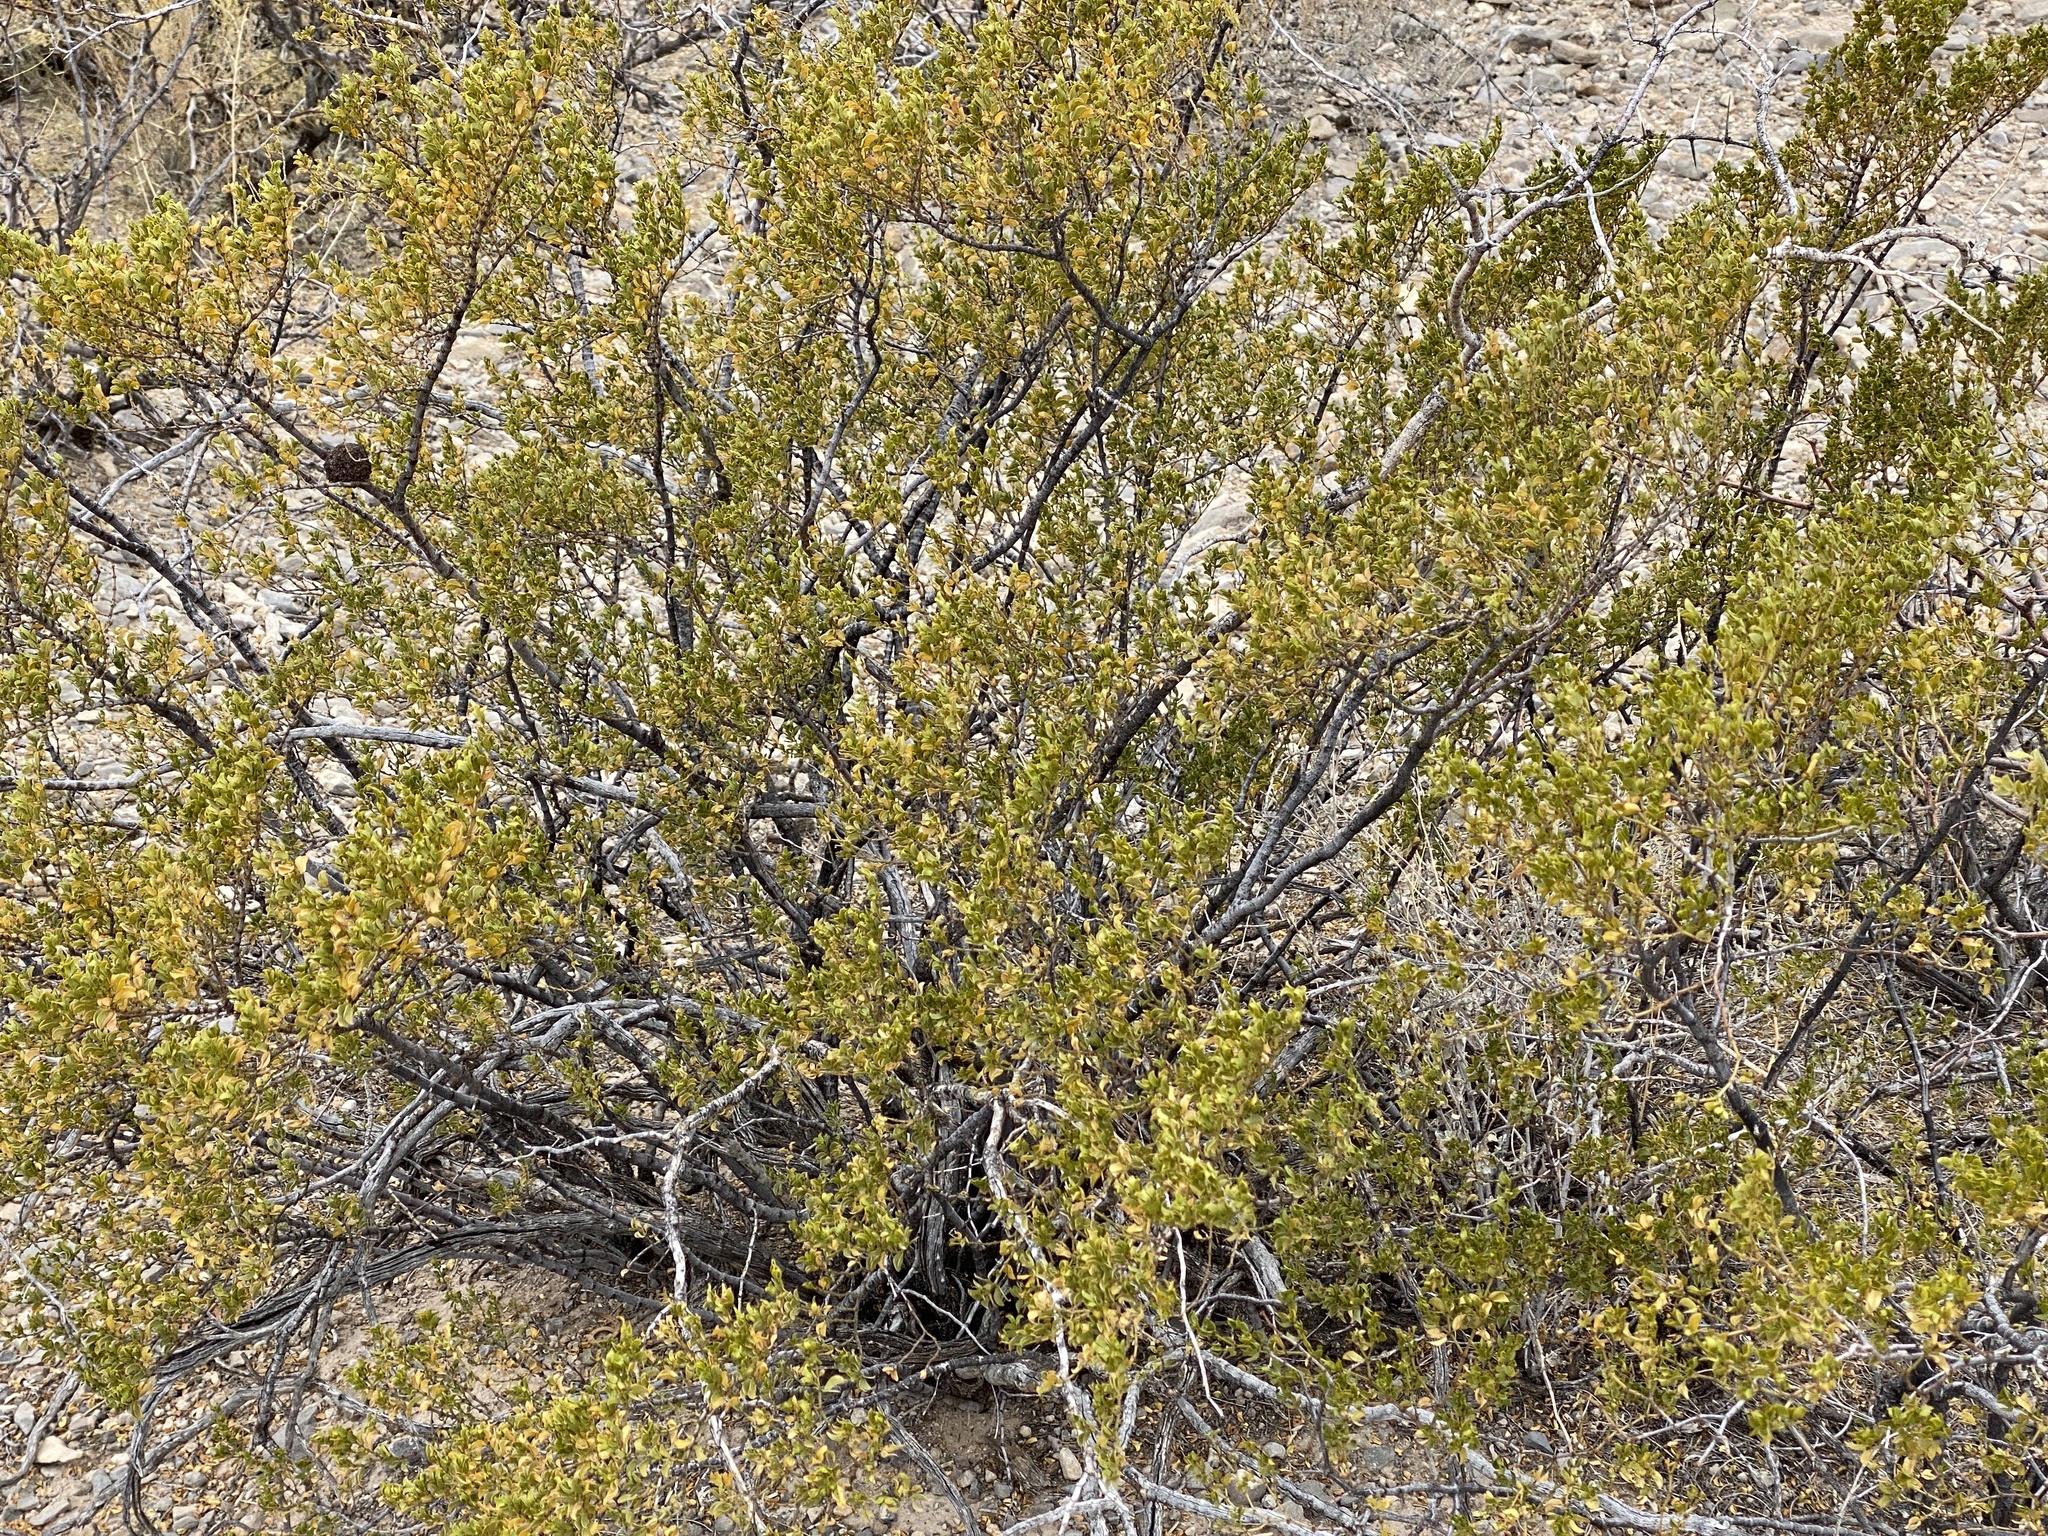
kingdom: Plantae
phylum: Tracheophyta
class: Magnoliopsida
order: Zygophyllales
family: Zygophyllaceae
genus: Larrea
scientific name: Larrea tridentata
